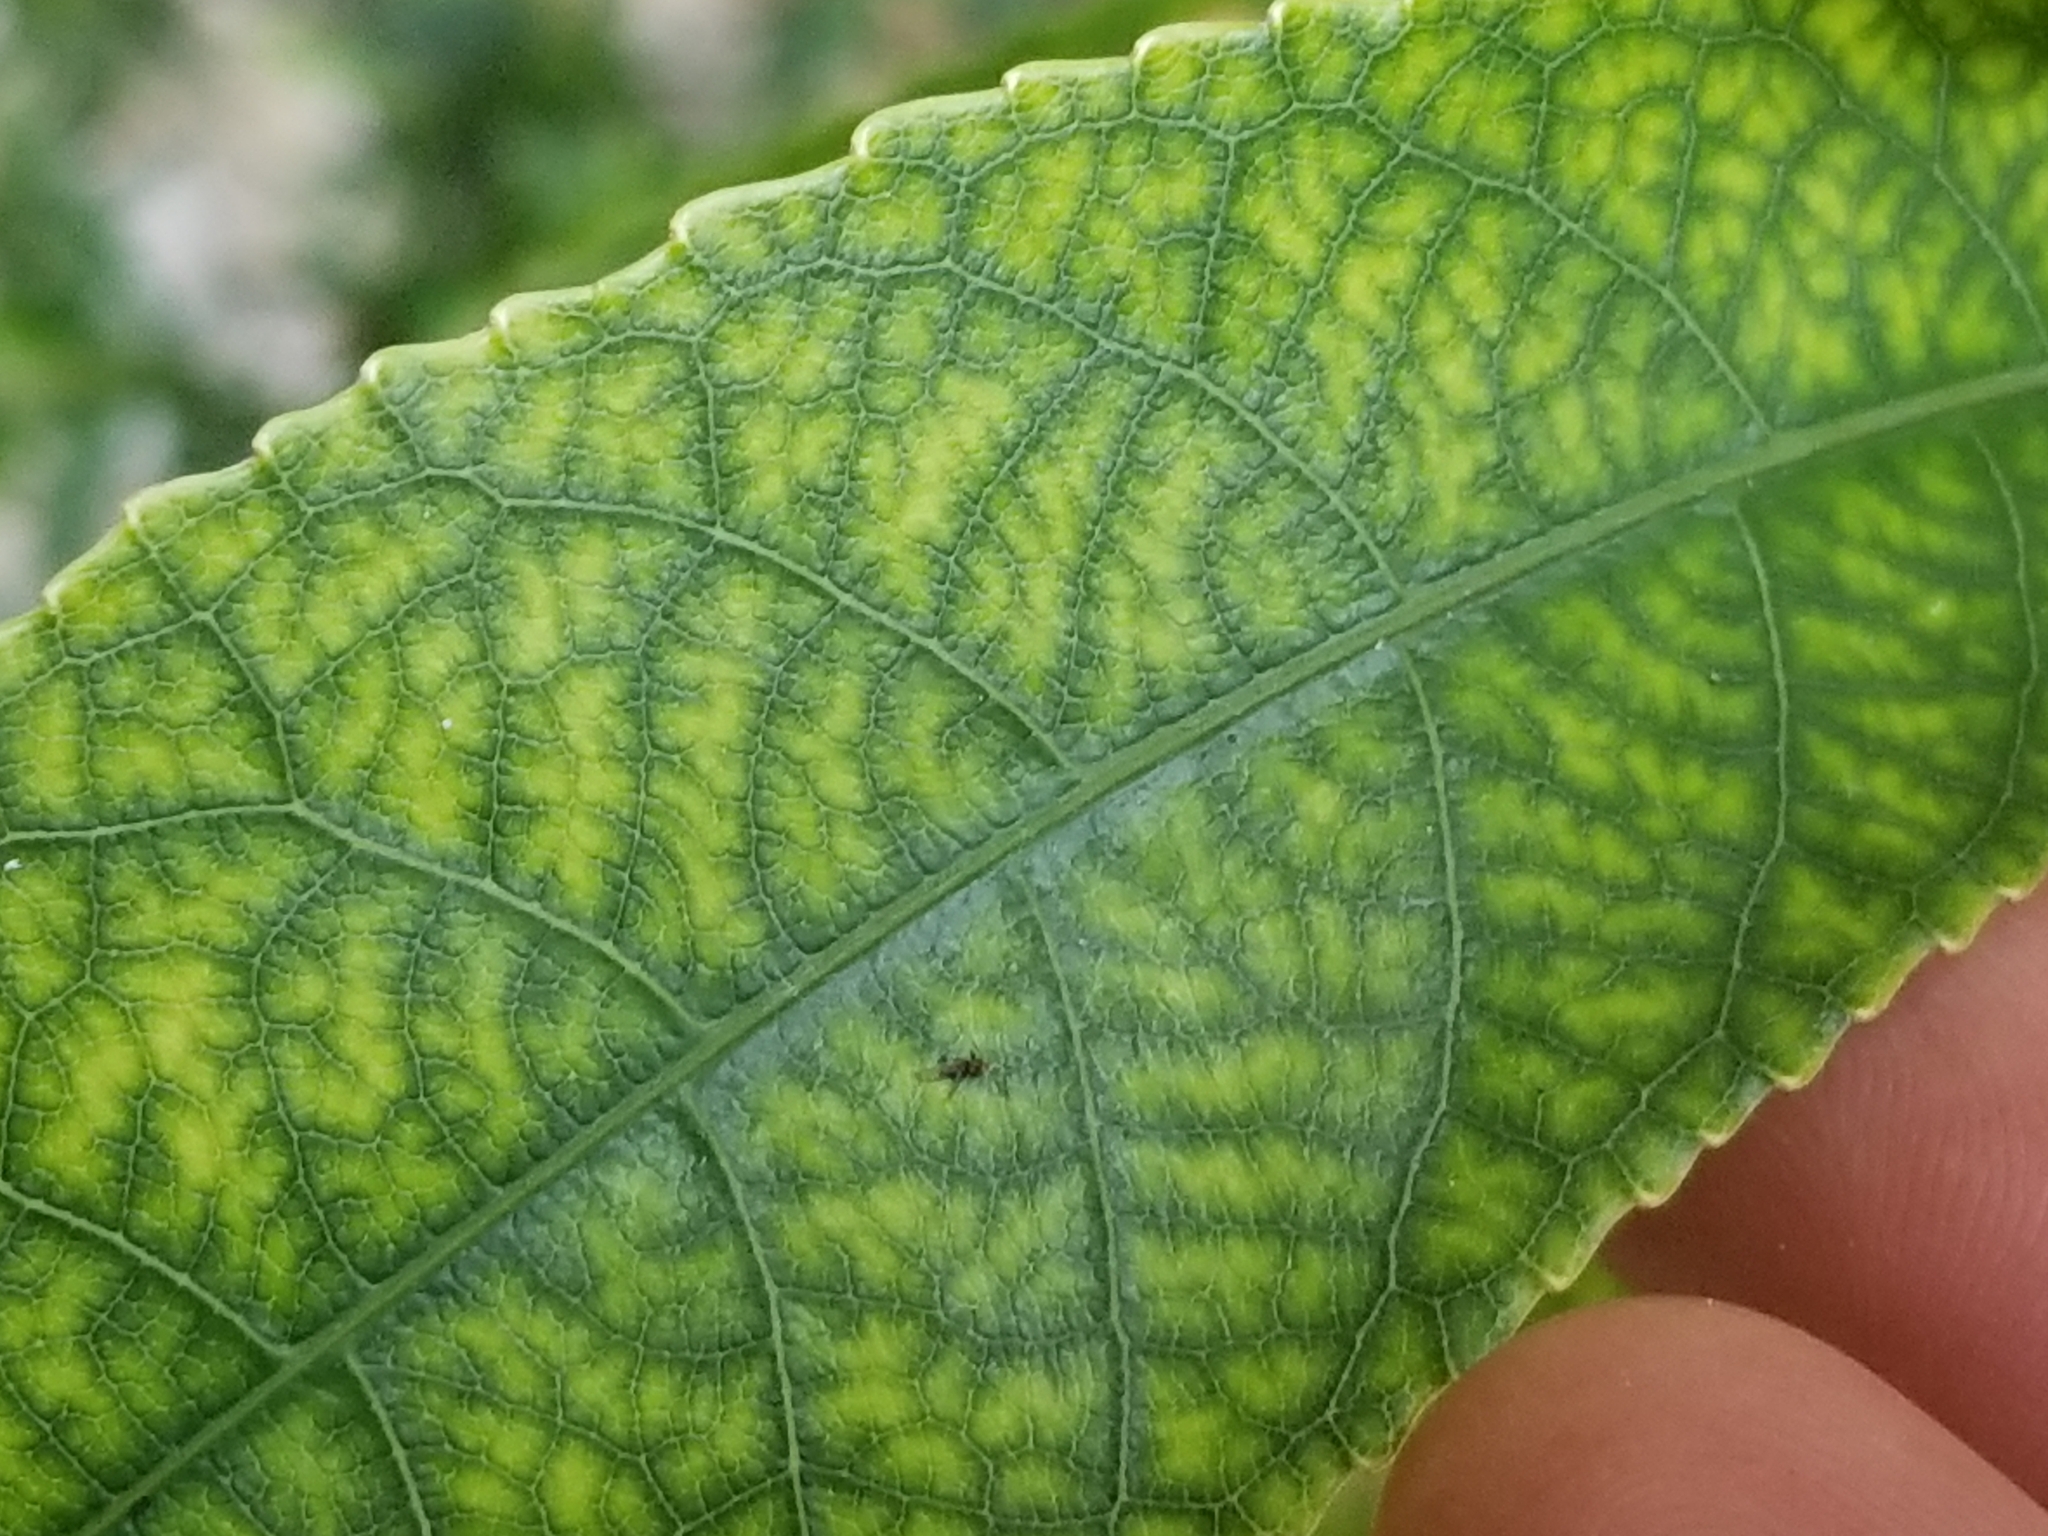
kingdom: Plantae
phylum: Tracheophyta
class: Magnoliopsida
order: Malpighiales
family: Violaceae
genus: Melicytus
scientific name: Melicytus ramiflorus
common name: Mahoe
